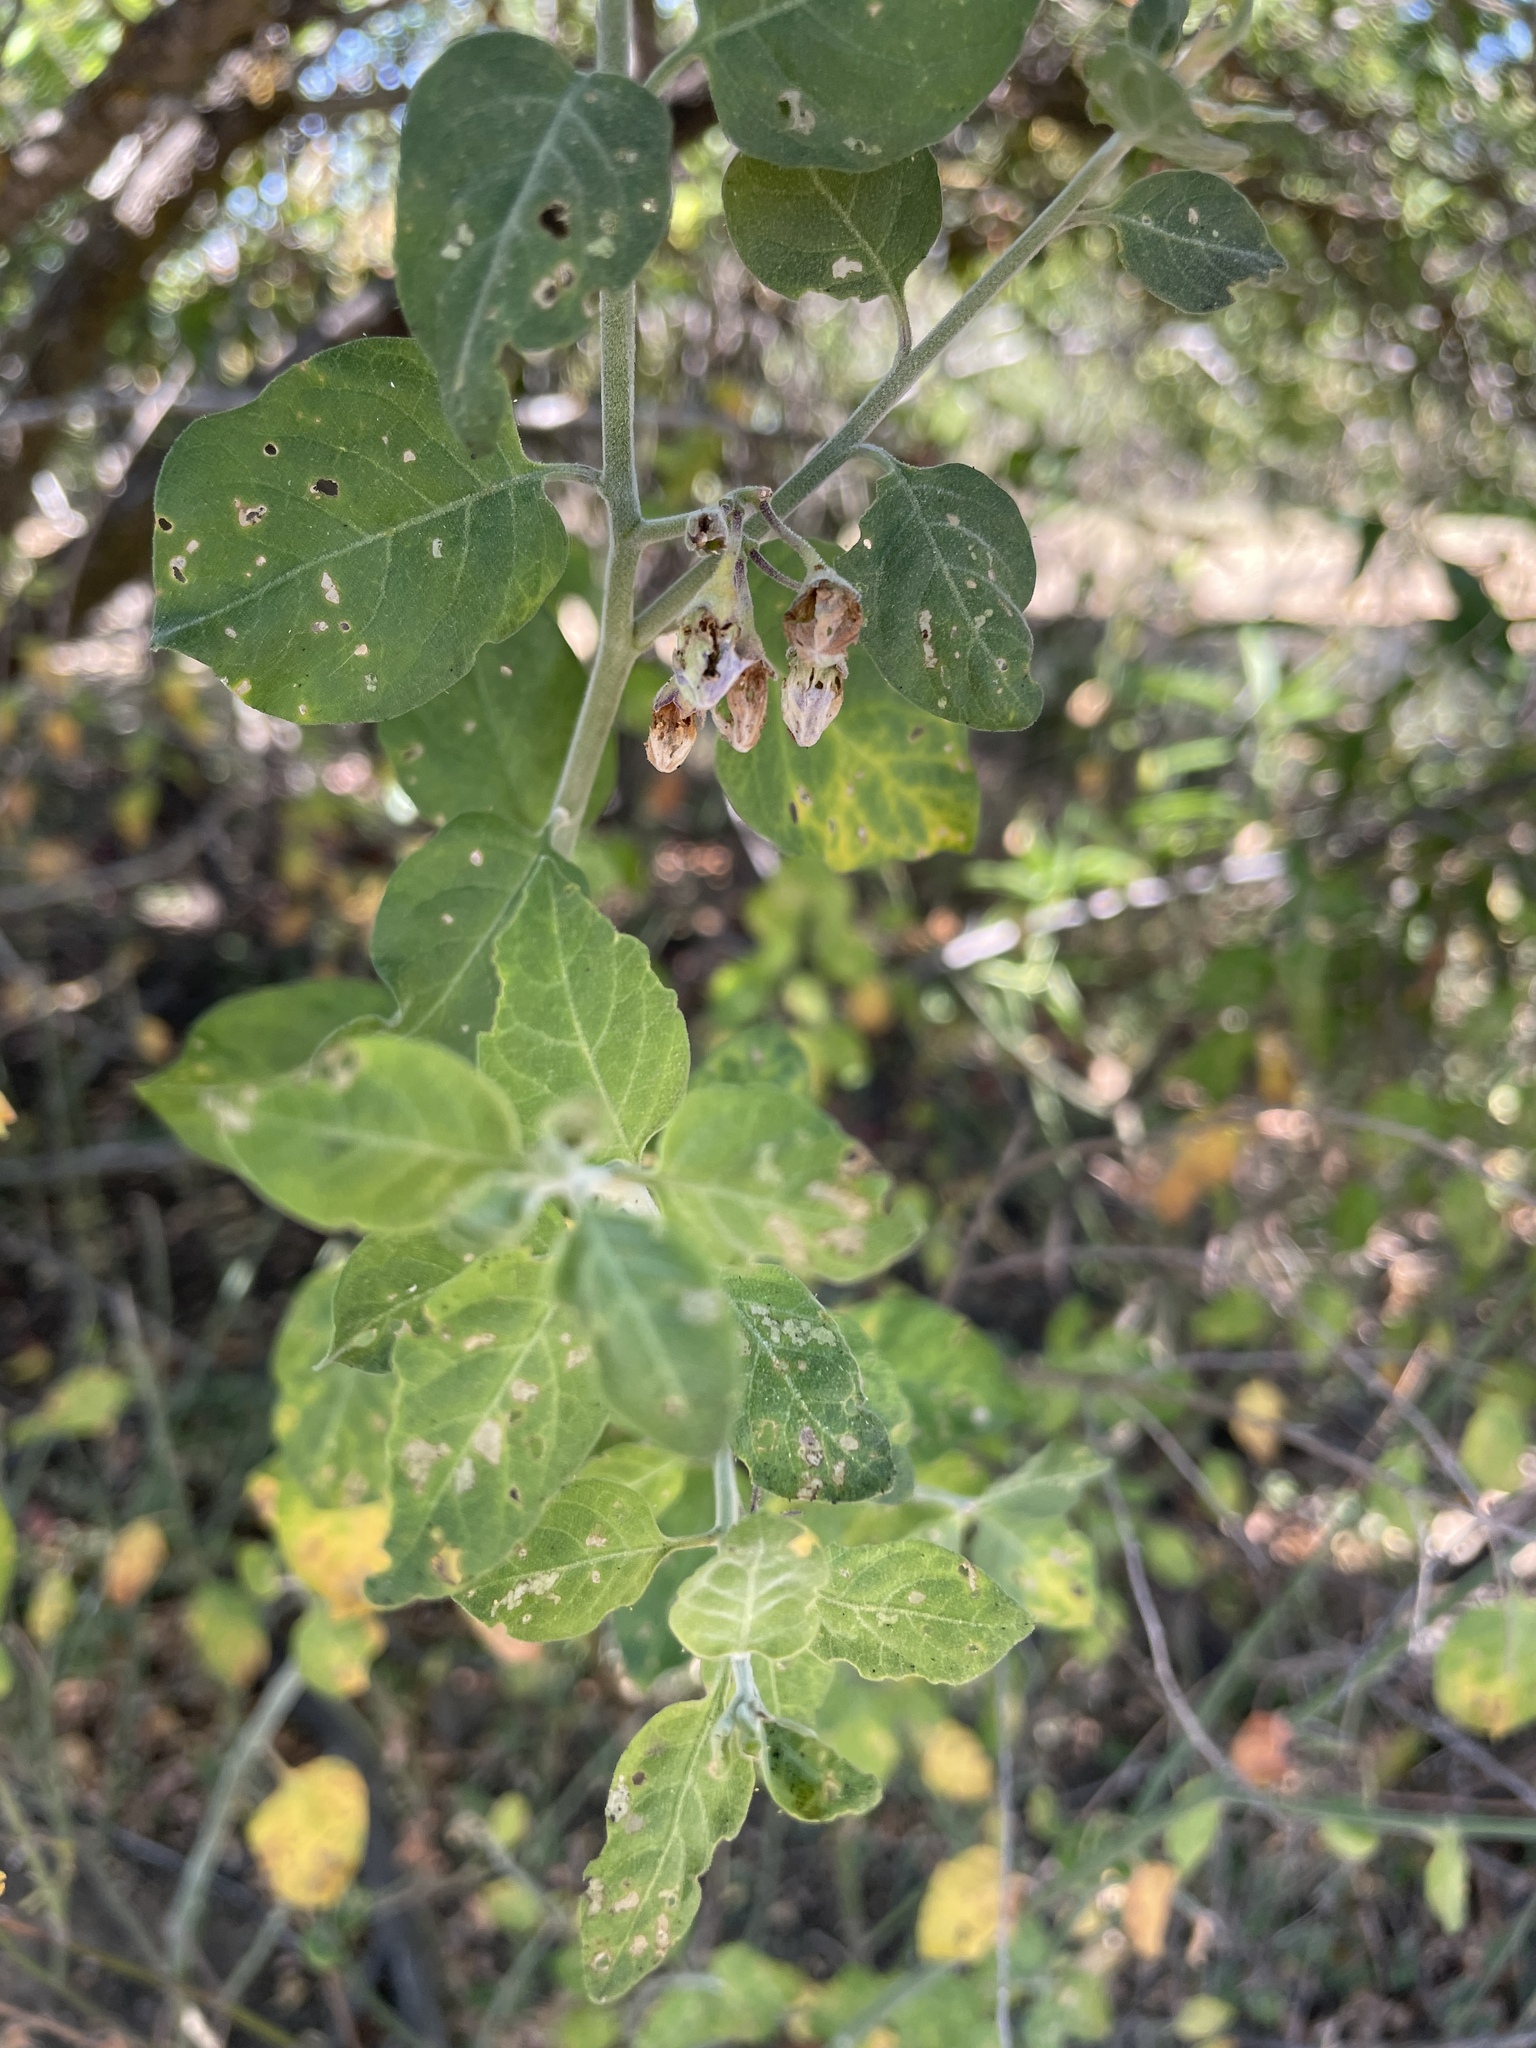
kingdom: Plantae
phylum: Tracheophyta
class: Magnoliopsida
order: Solanales
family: Solanaceae
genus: Solanum
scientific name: Solanum umbelliferum
